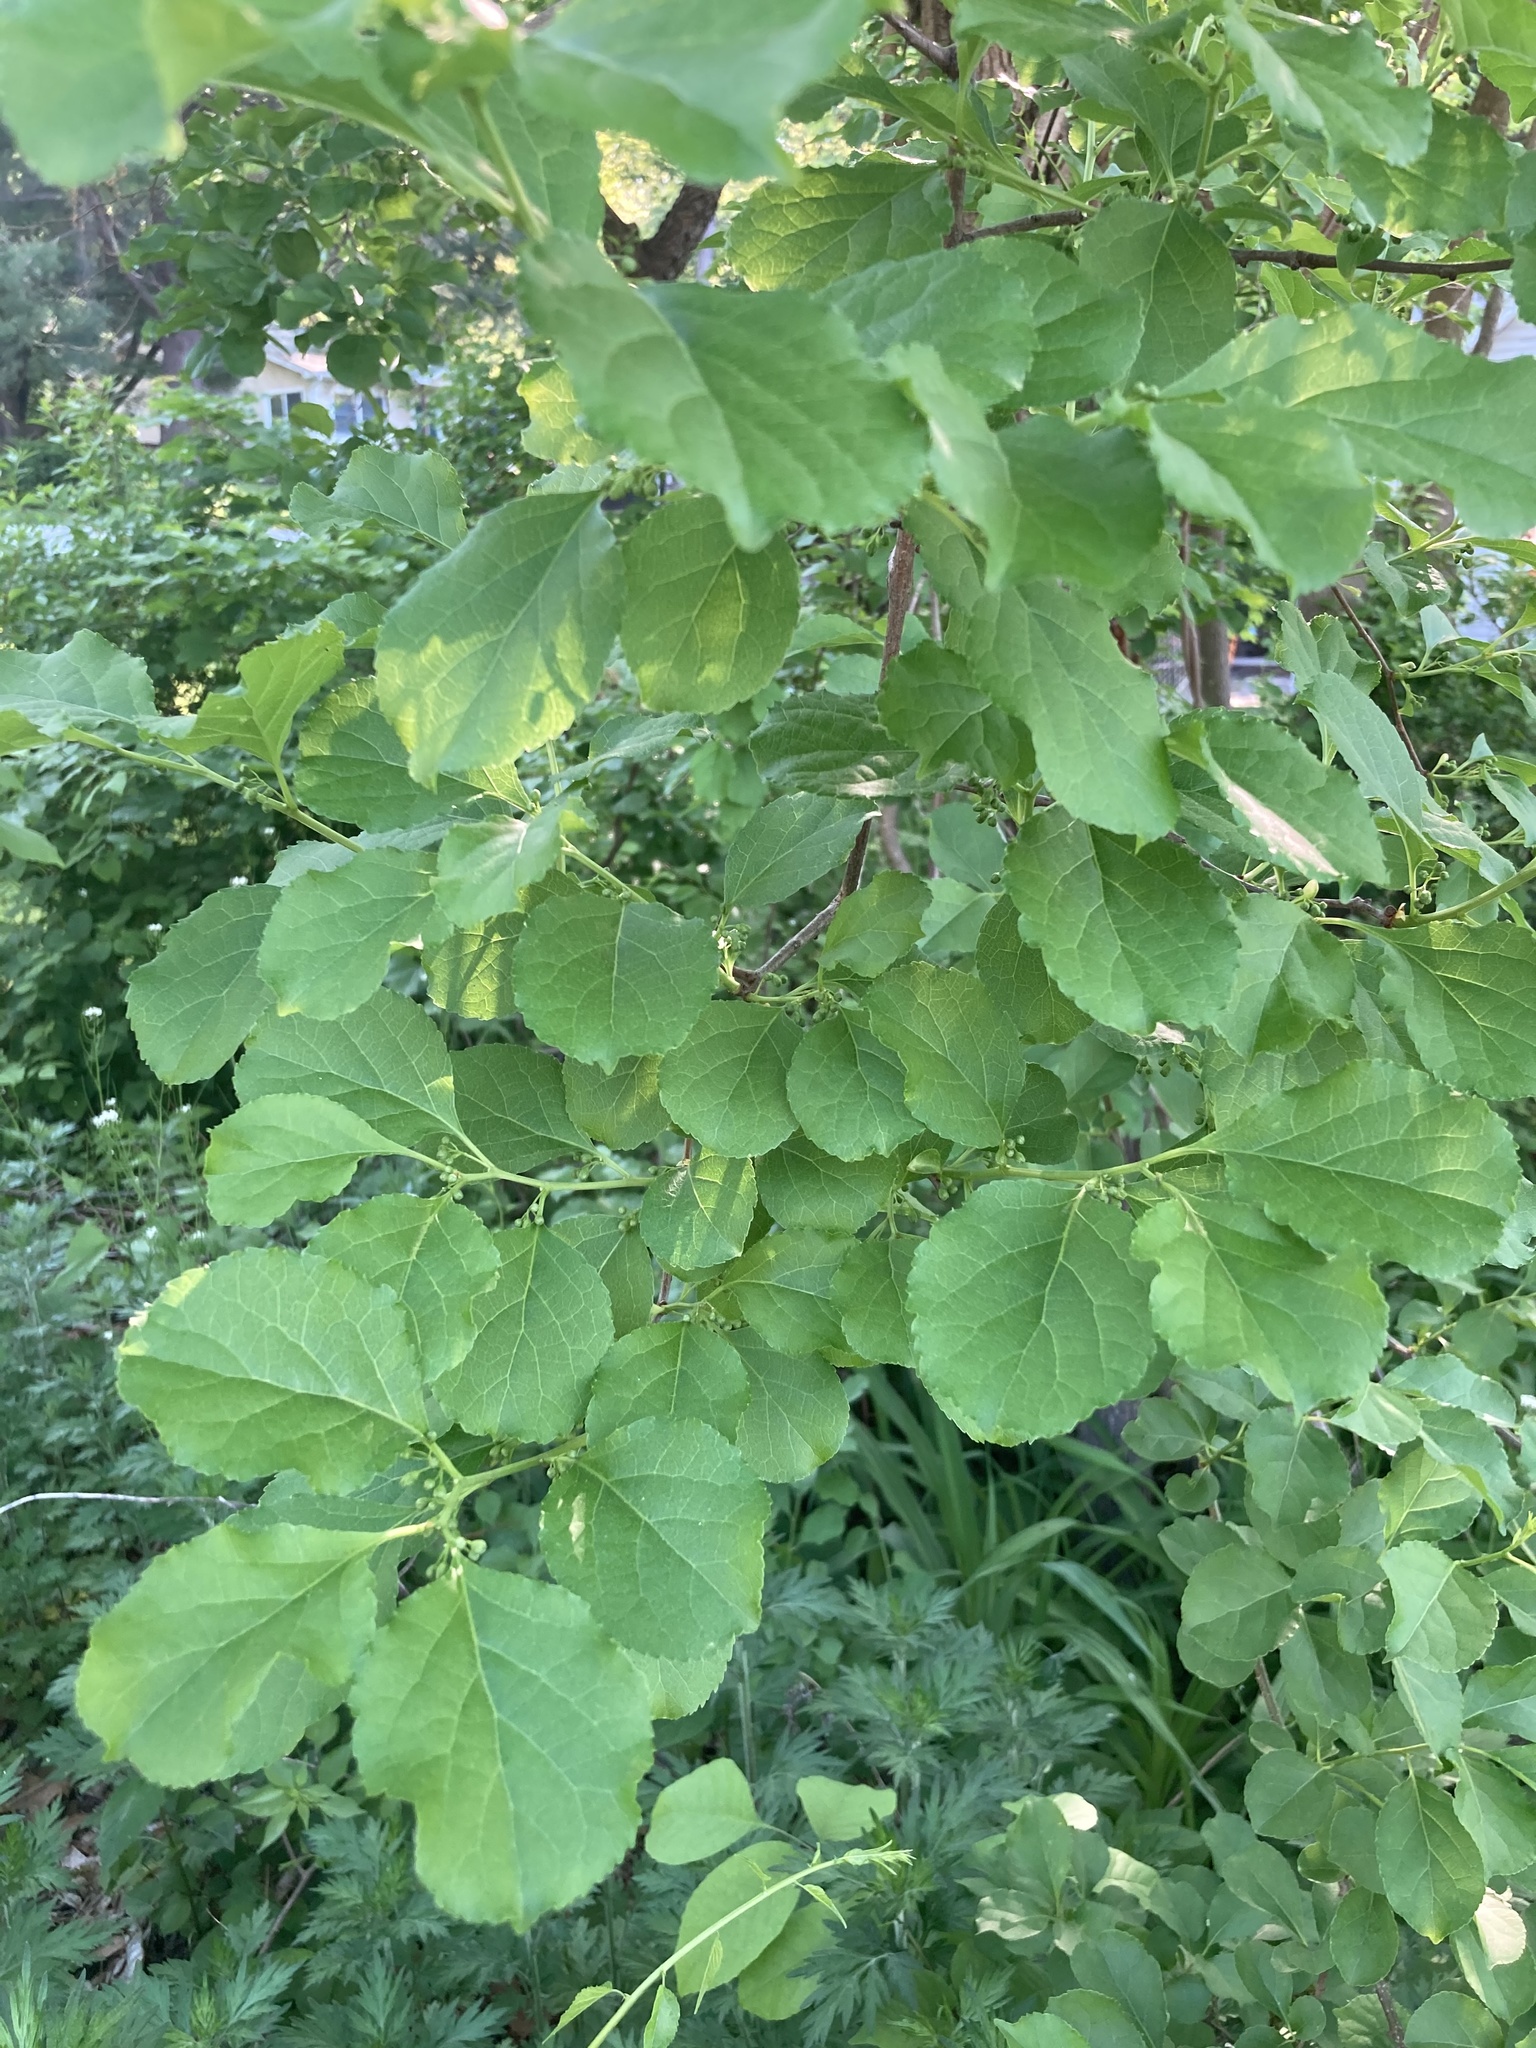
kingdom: Plantae
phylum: Tracheophyta
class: Magnoliopsida
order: Celastrales
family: Celastraceae
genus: Celastrus
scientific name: Celastrus orbiculatus
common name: Oriental bittersweet
